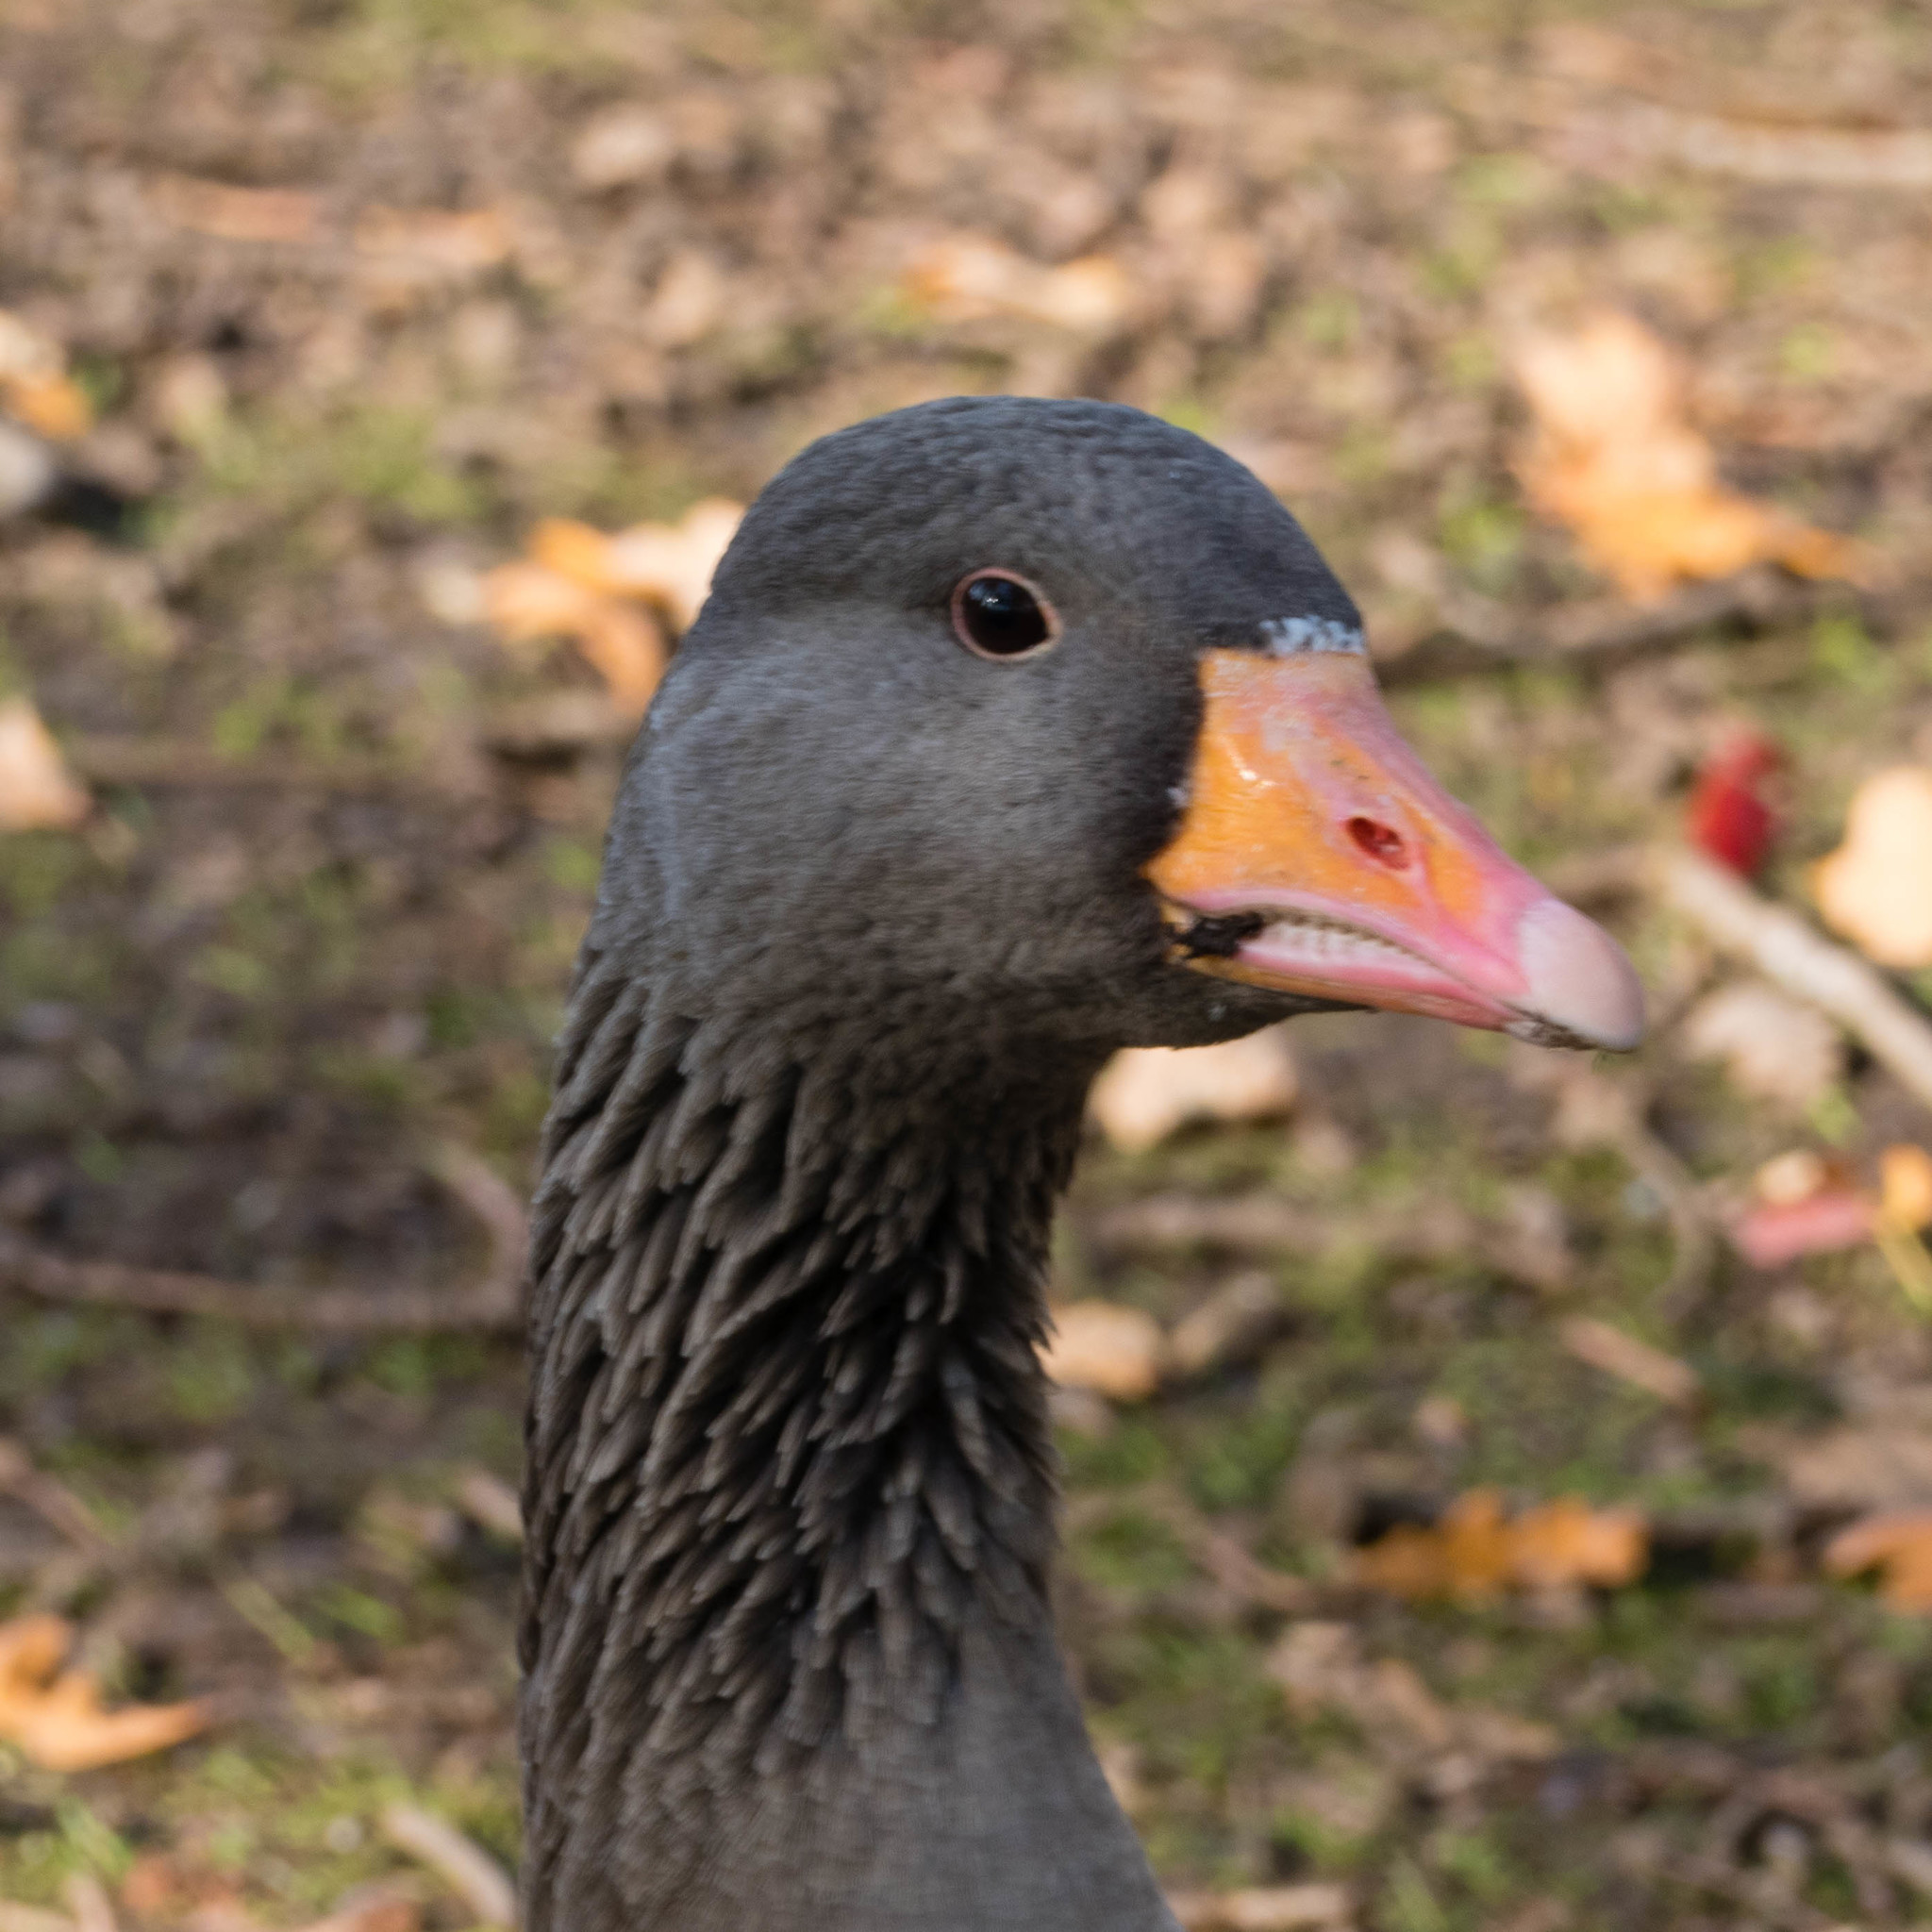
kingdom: Animalia
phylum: Chordata
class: Aves
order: Anseriformes
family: Anatidae
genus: Anser
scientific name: Anser anser
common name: Greylag goose
